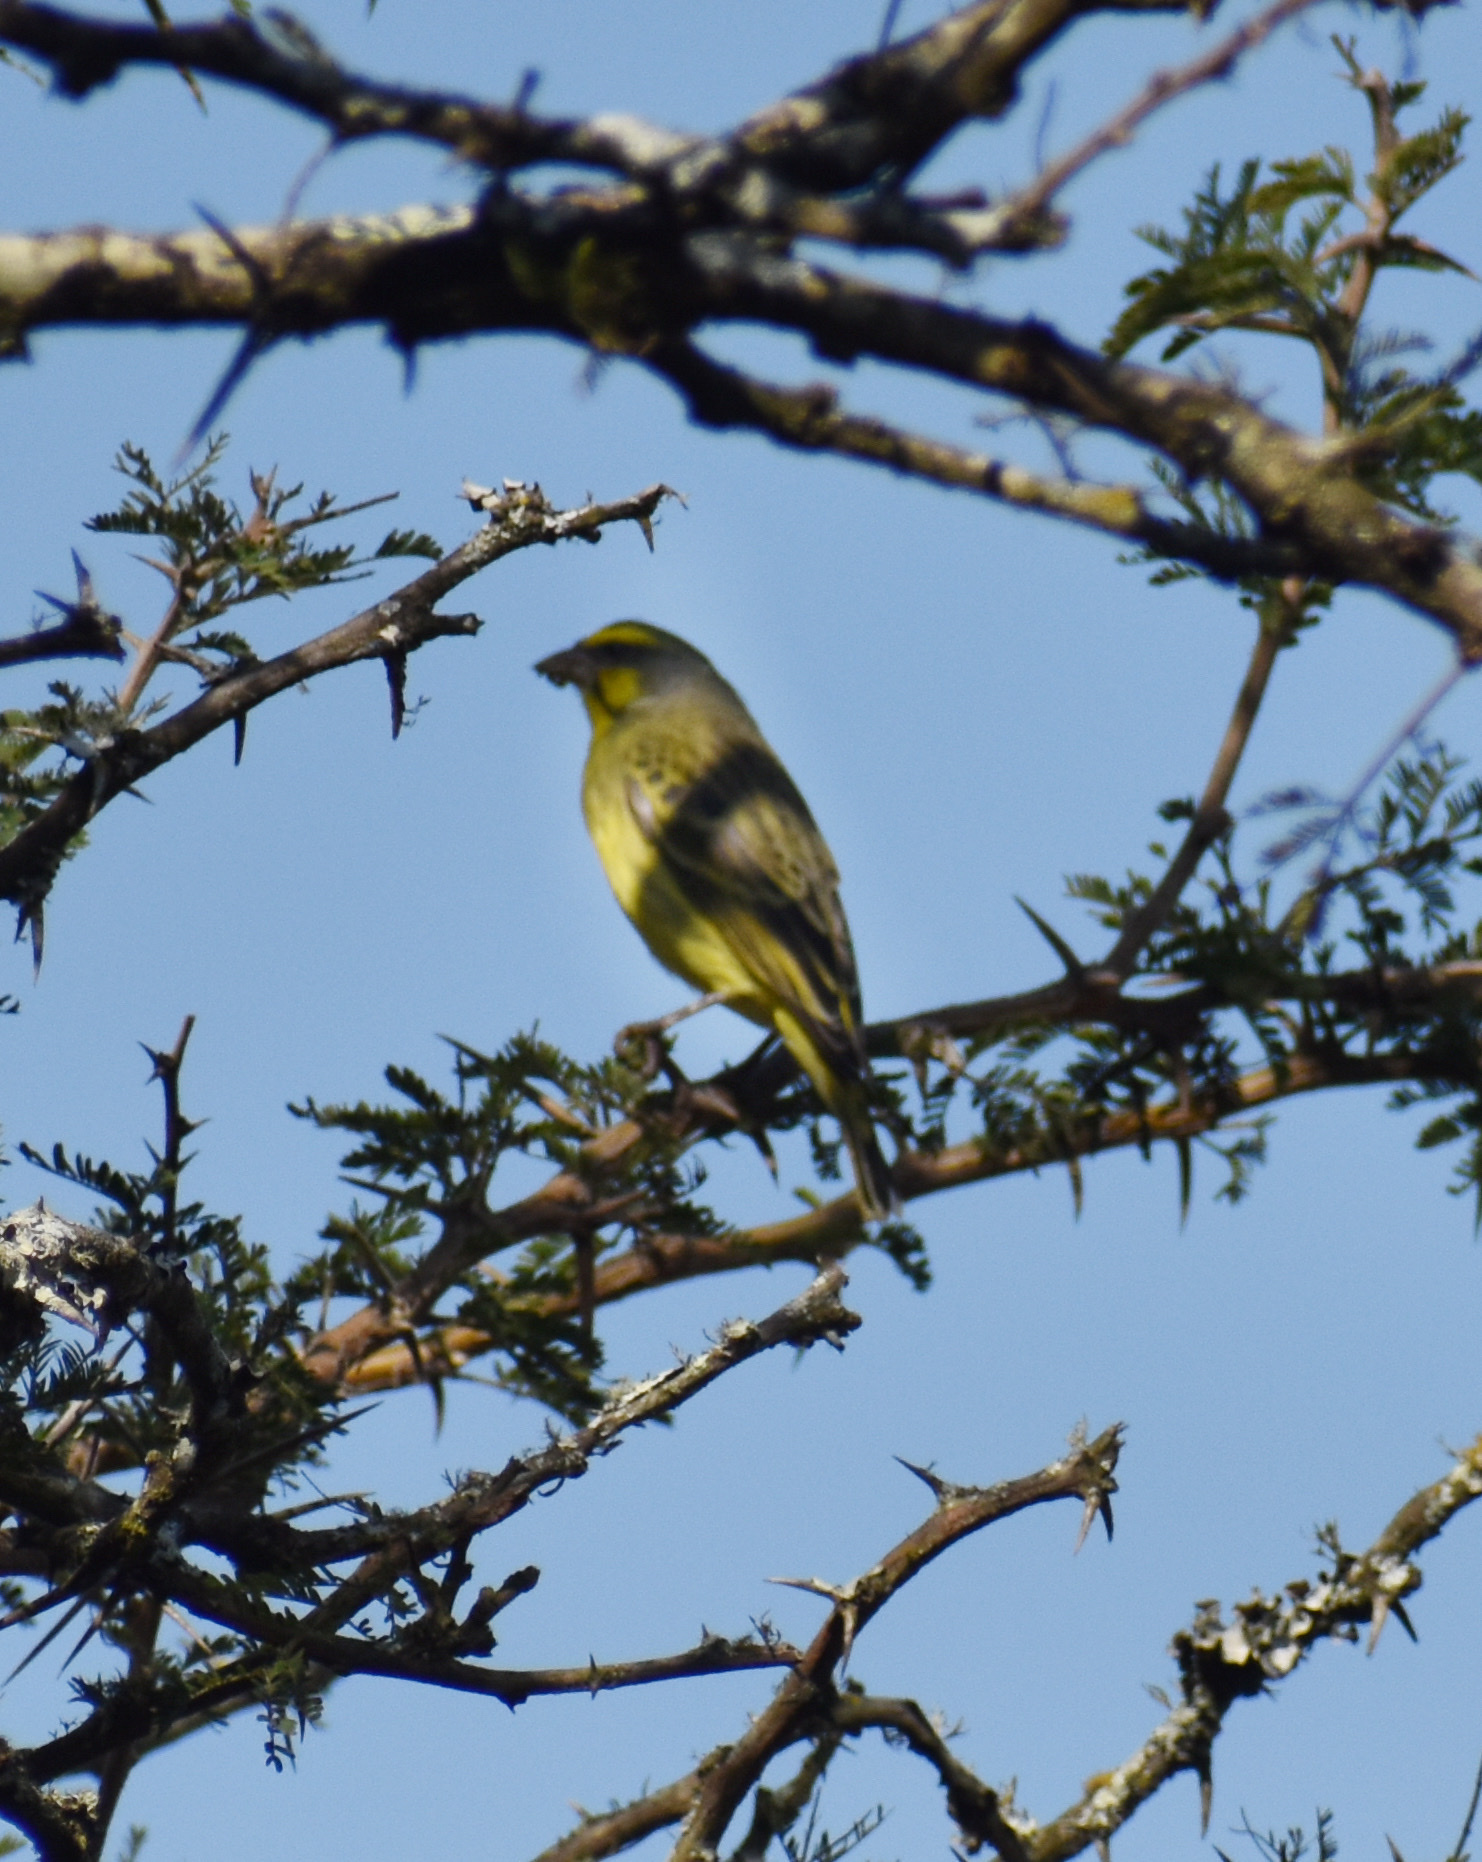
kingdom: Animalia
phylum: Chordata
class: Aves
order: Passeriformes
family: Fringillidae
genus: Crithagra
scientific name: Crithagra mozambica
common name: Yellow-fronted canary
